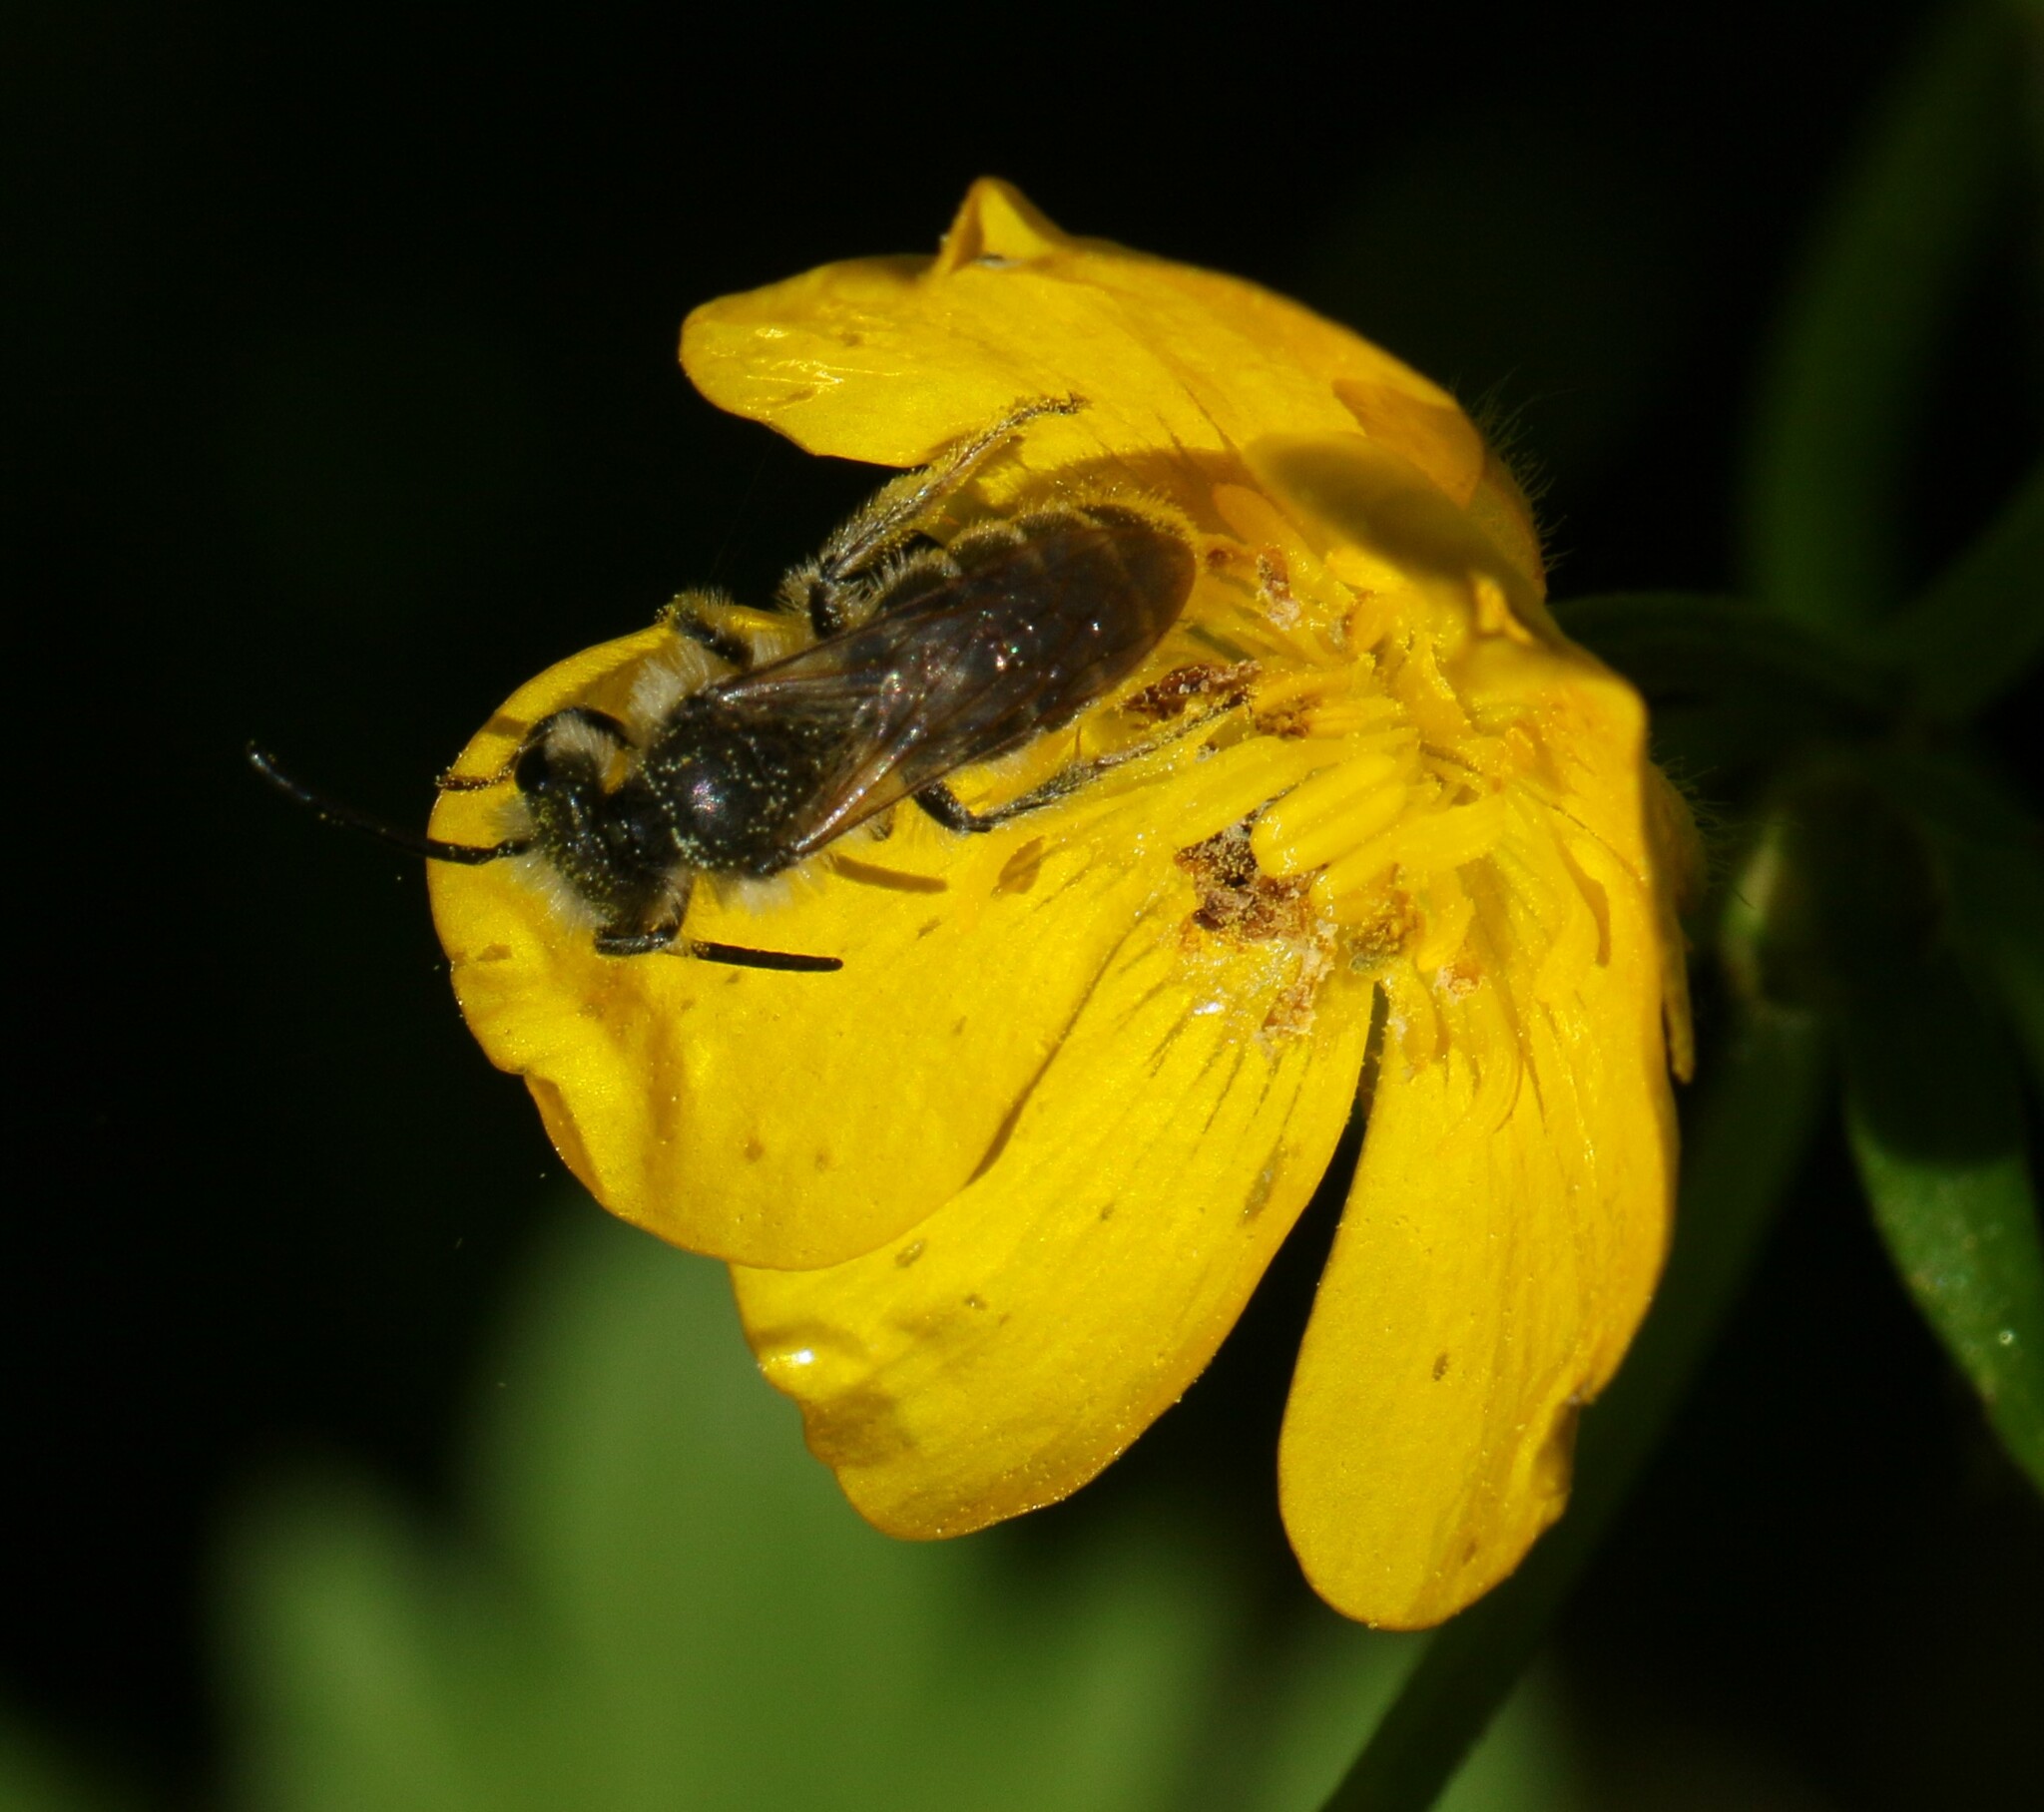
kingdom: Animalia
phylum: Arthropoda
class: Insecta
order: Hymenoptera
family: Andrenidae
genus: Andrena
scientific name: Andrena
